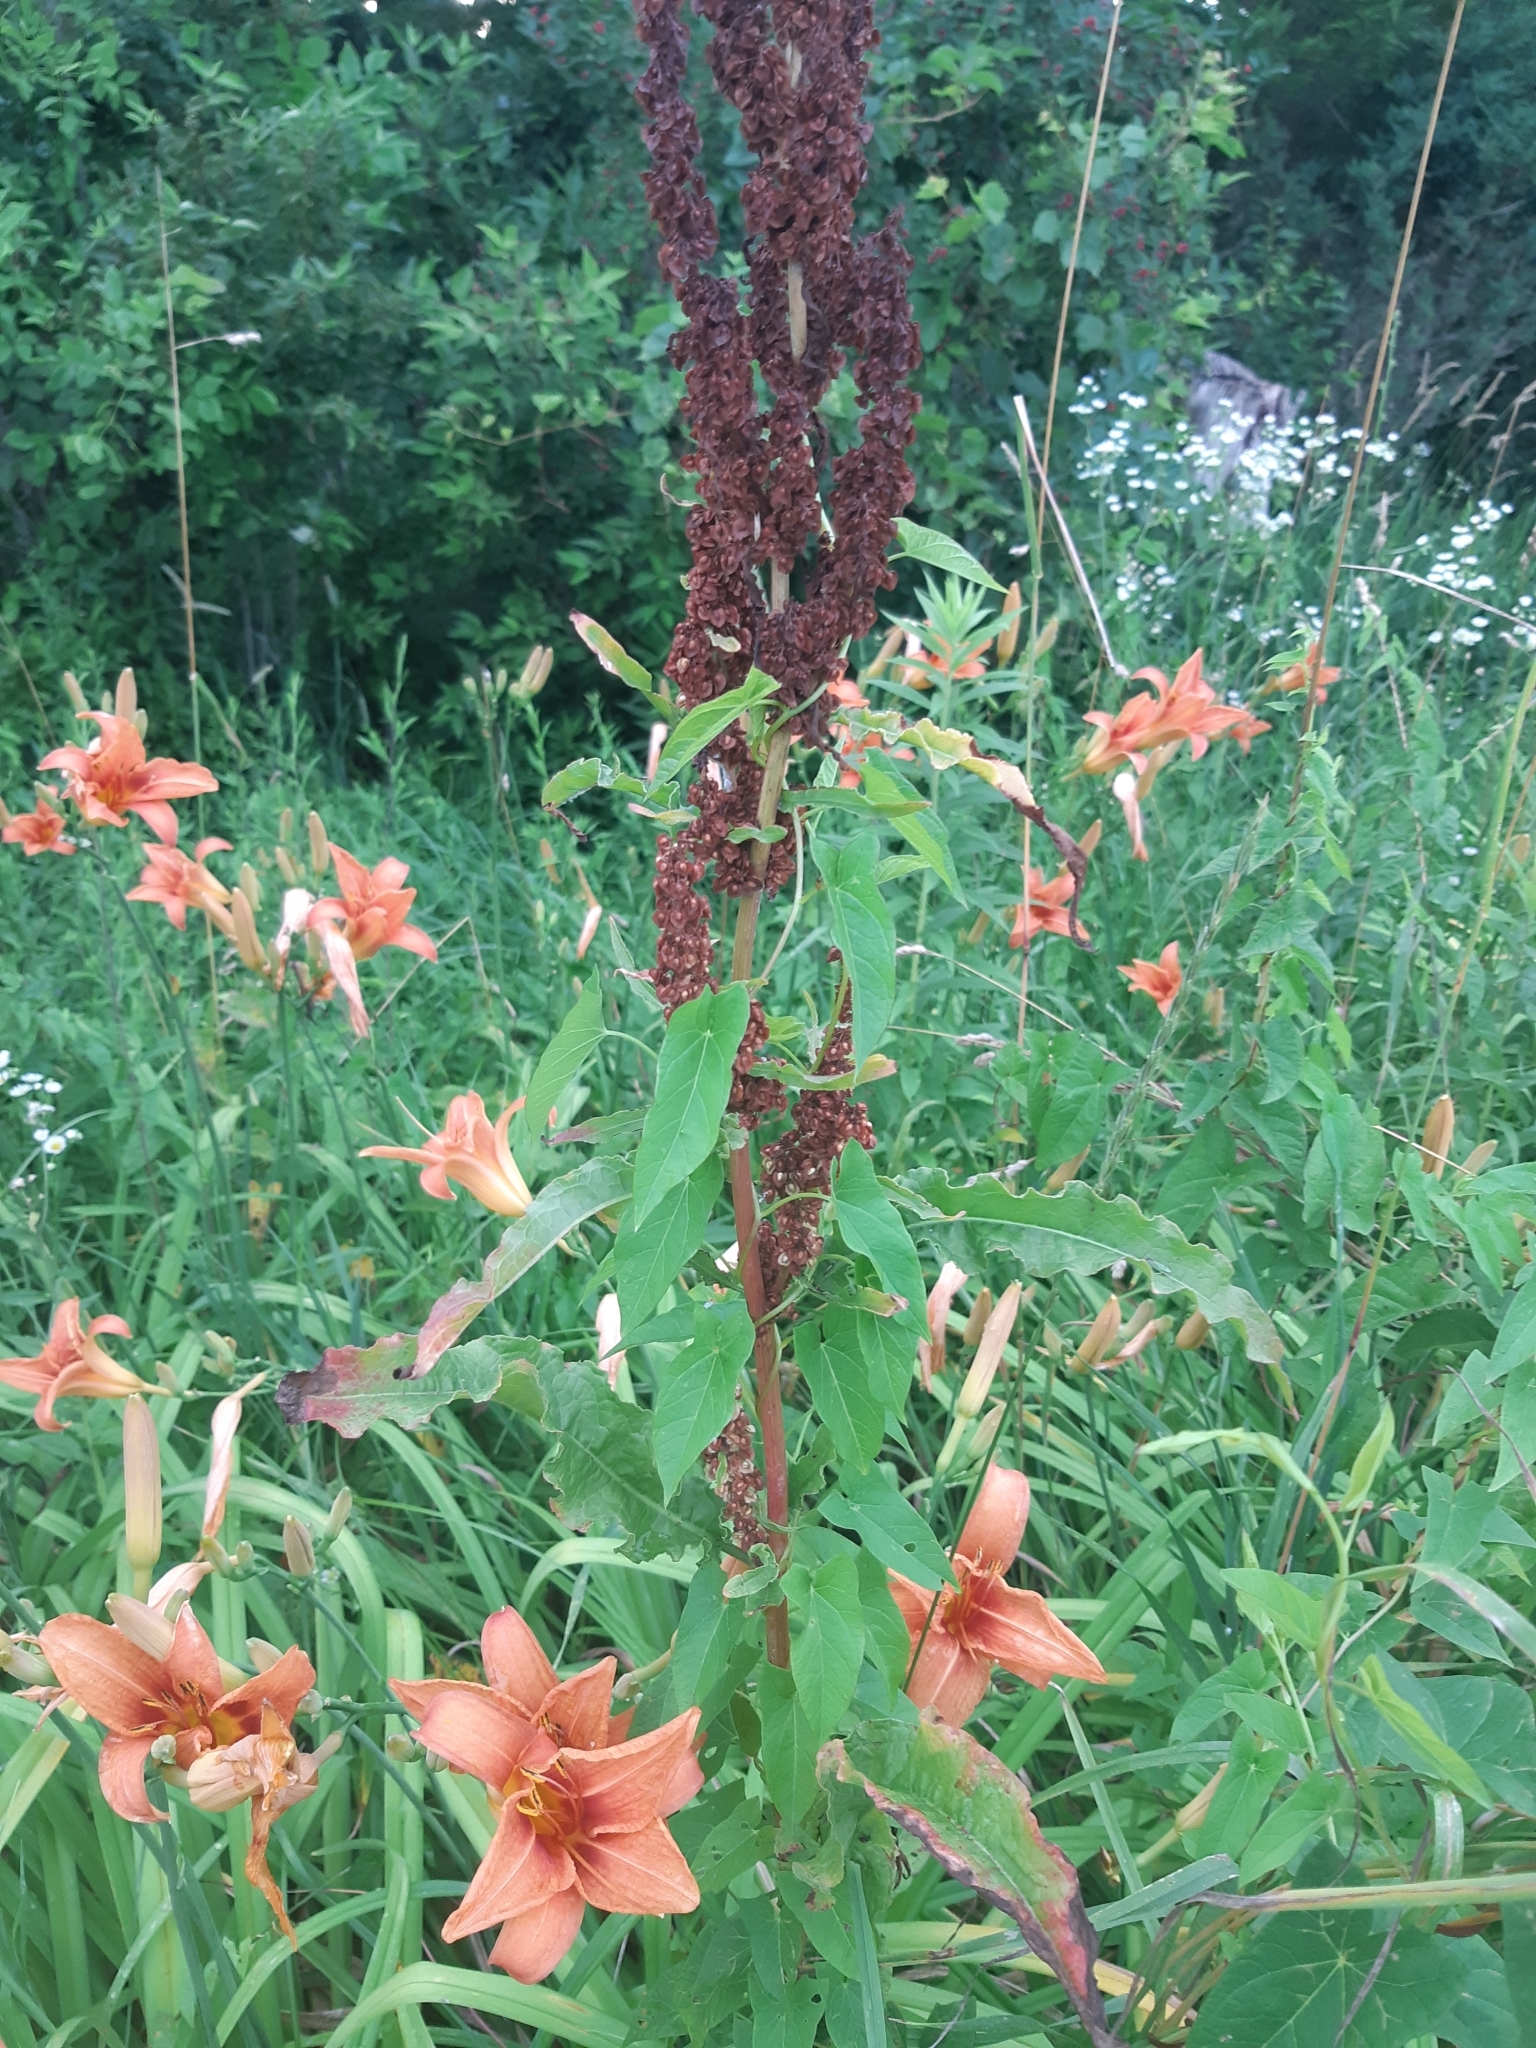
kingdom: Plantae
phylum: Tracheophyta
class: Liliopsida
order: Asparagales
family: Asphodelaceae
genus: Hemerocallis
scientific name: Hemerocallis fulva
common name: Orange day-lily
